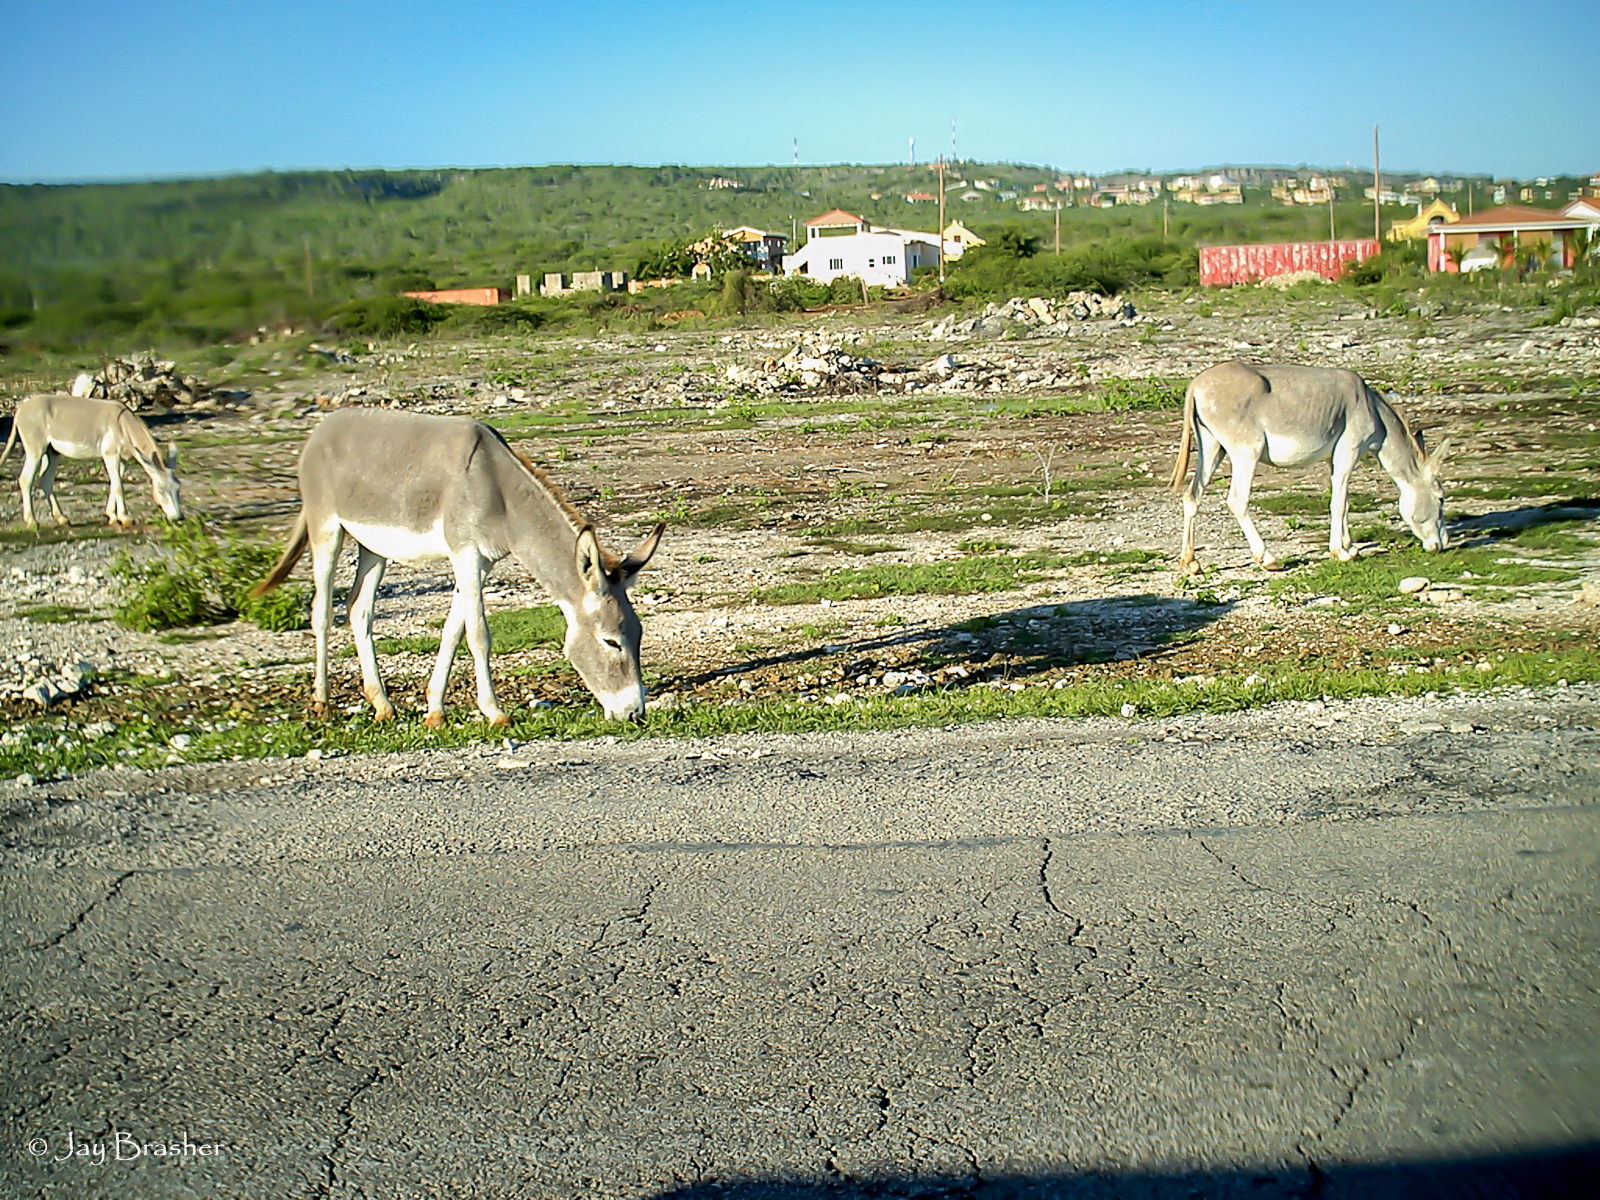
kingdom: Animalia
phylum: Chordata
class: Mammalia
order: Perissodactyla
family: Equidae
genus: Equus
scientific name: Equus asinus
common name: Ass
